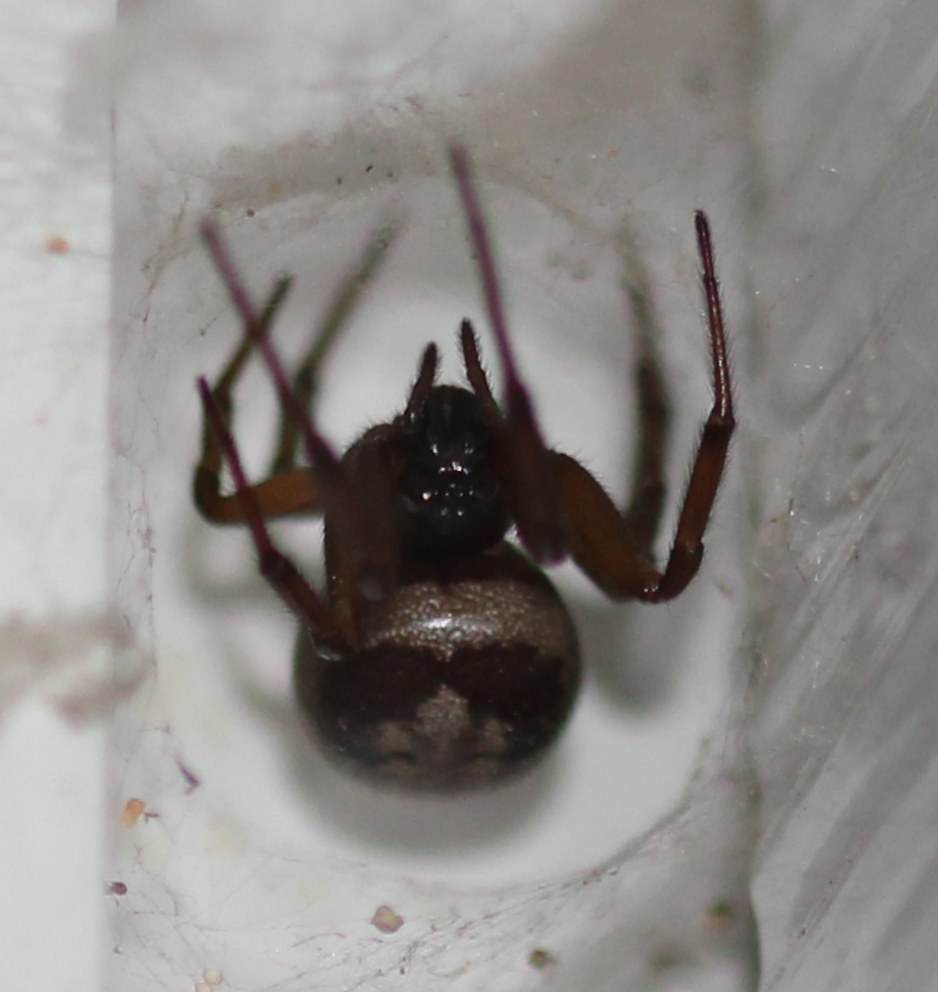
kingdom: Animalia
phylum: Arthropoda
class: Arachnida
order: Araneae
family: Theridiidae
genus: Steatoda
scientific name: Steatoda nobilis
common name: Cobweb weaver
